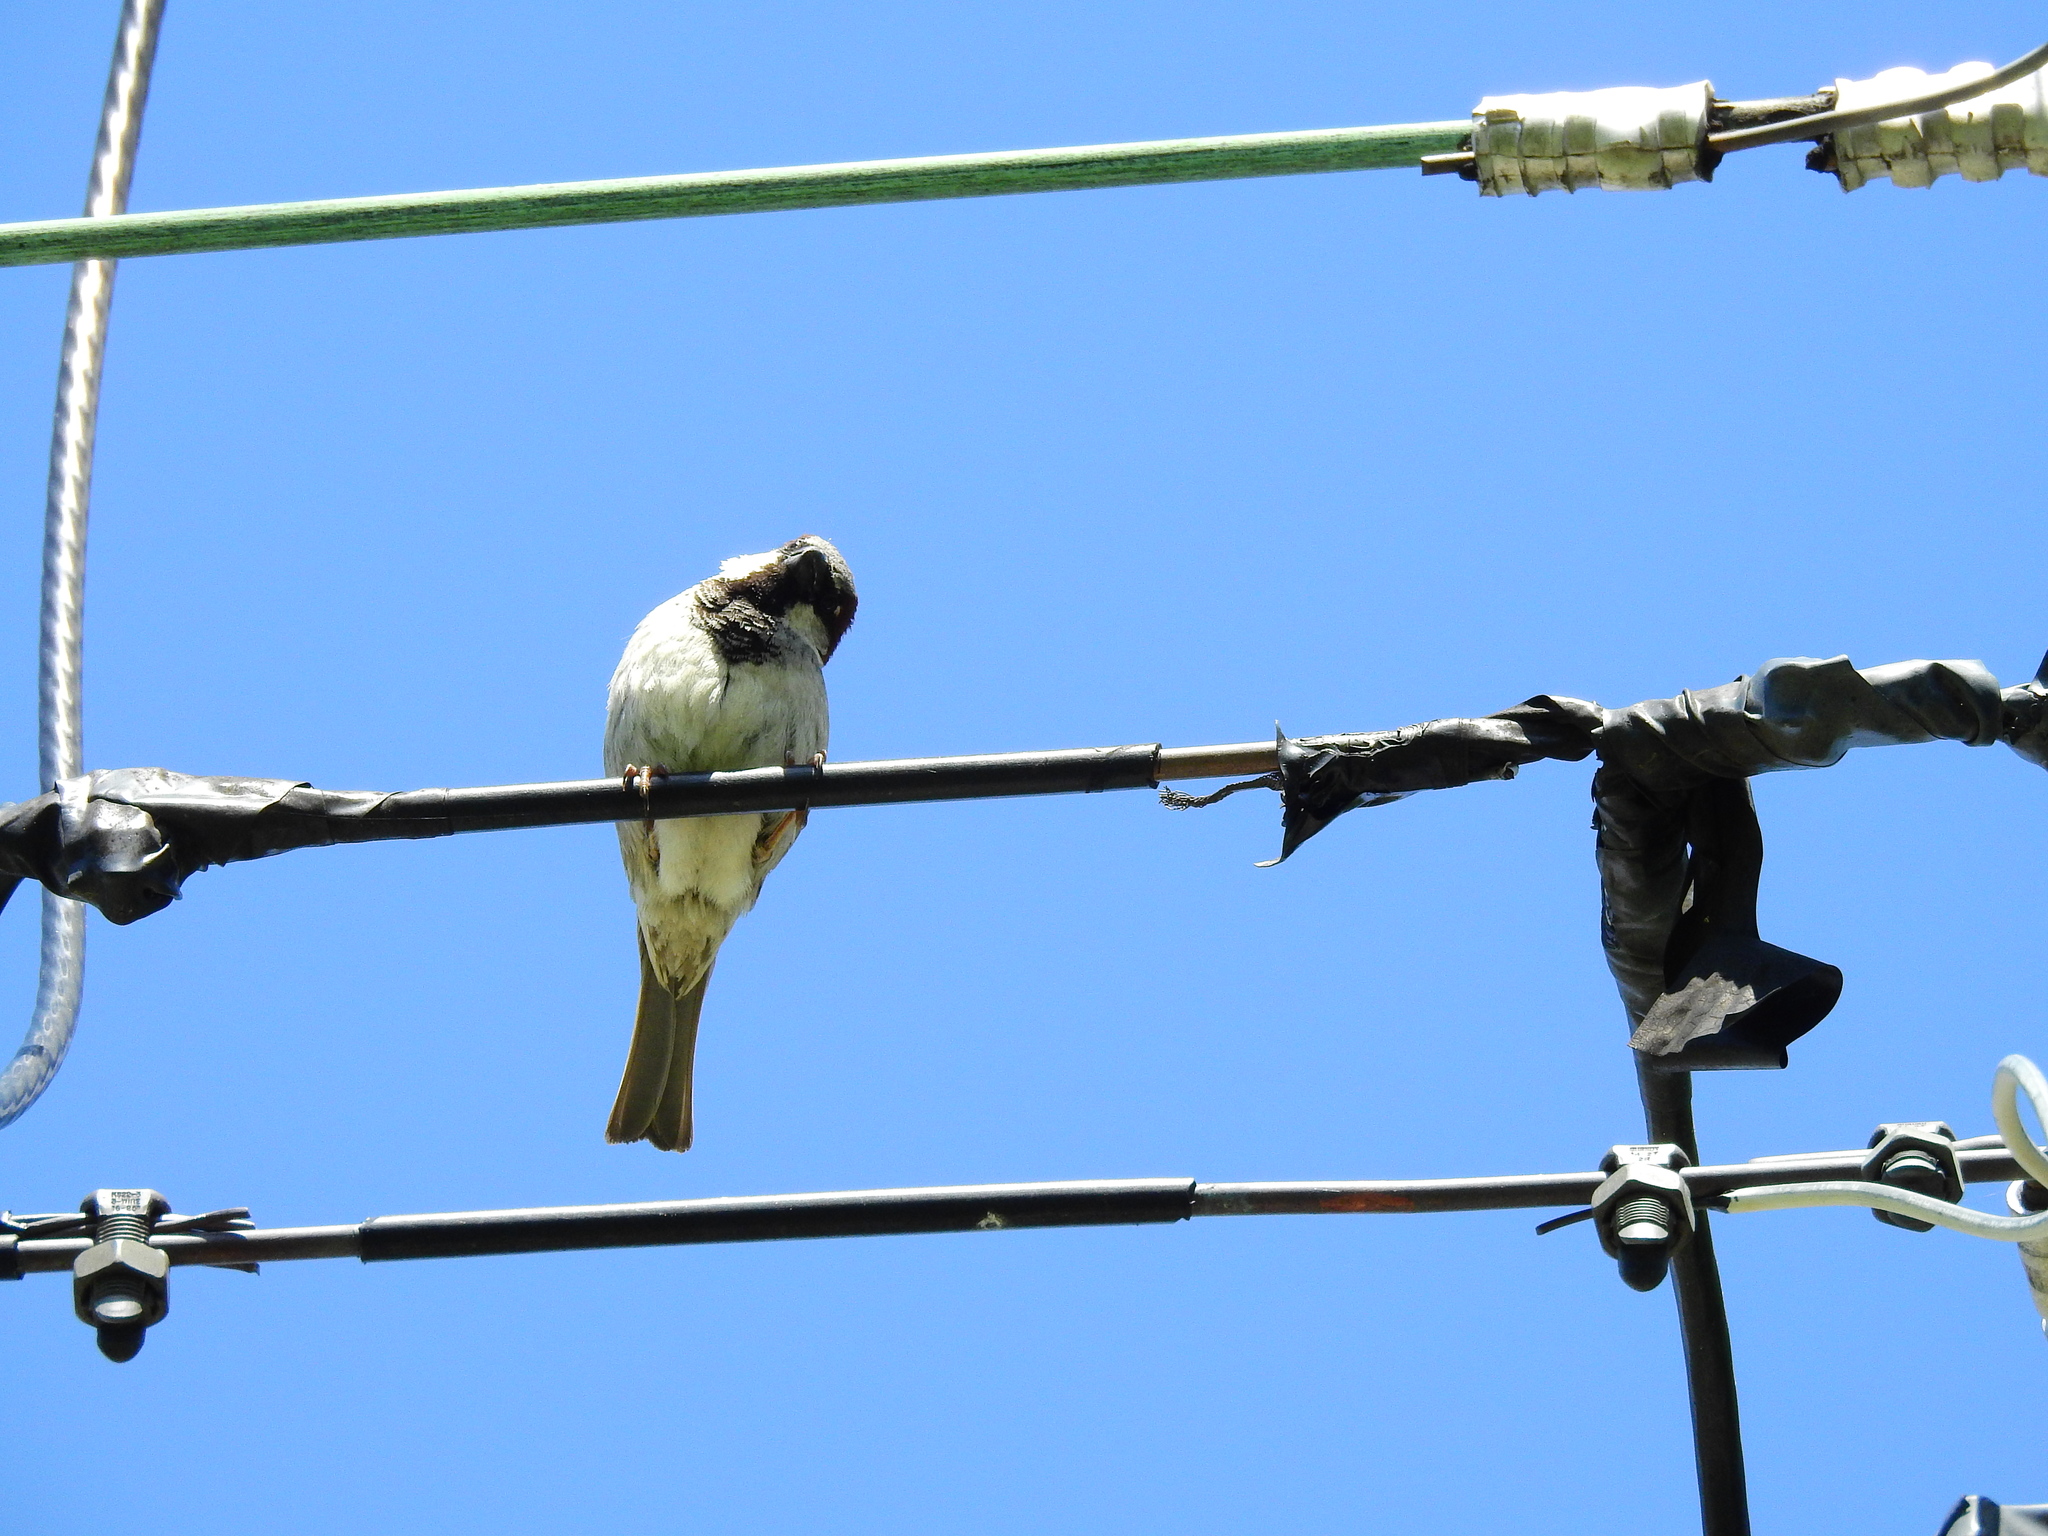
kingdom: Animalia
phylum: Chordata
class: Aves
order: Passeriformes
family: Passeridae
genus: Passer
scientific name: Passer domesticus
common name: House sparrow
